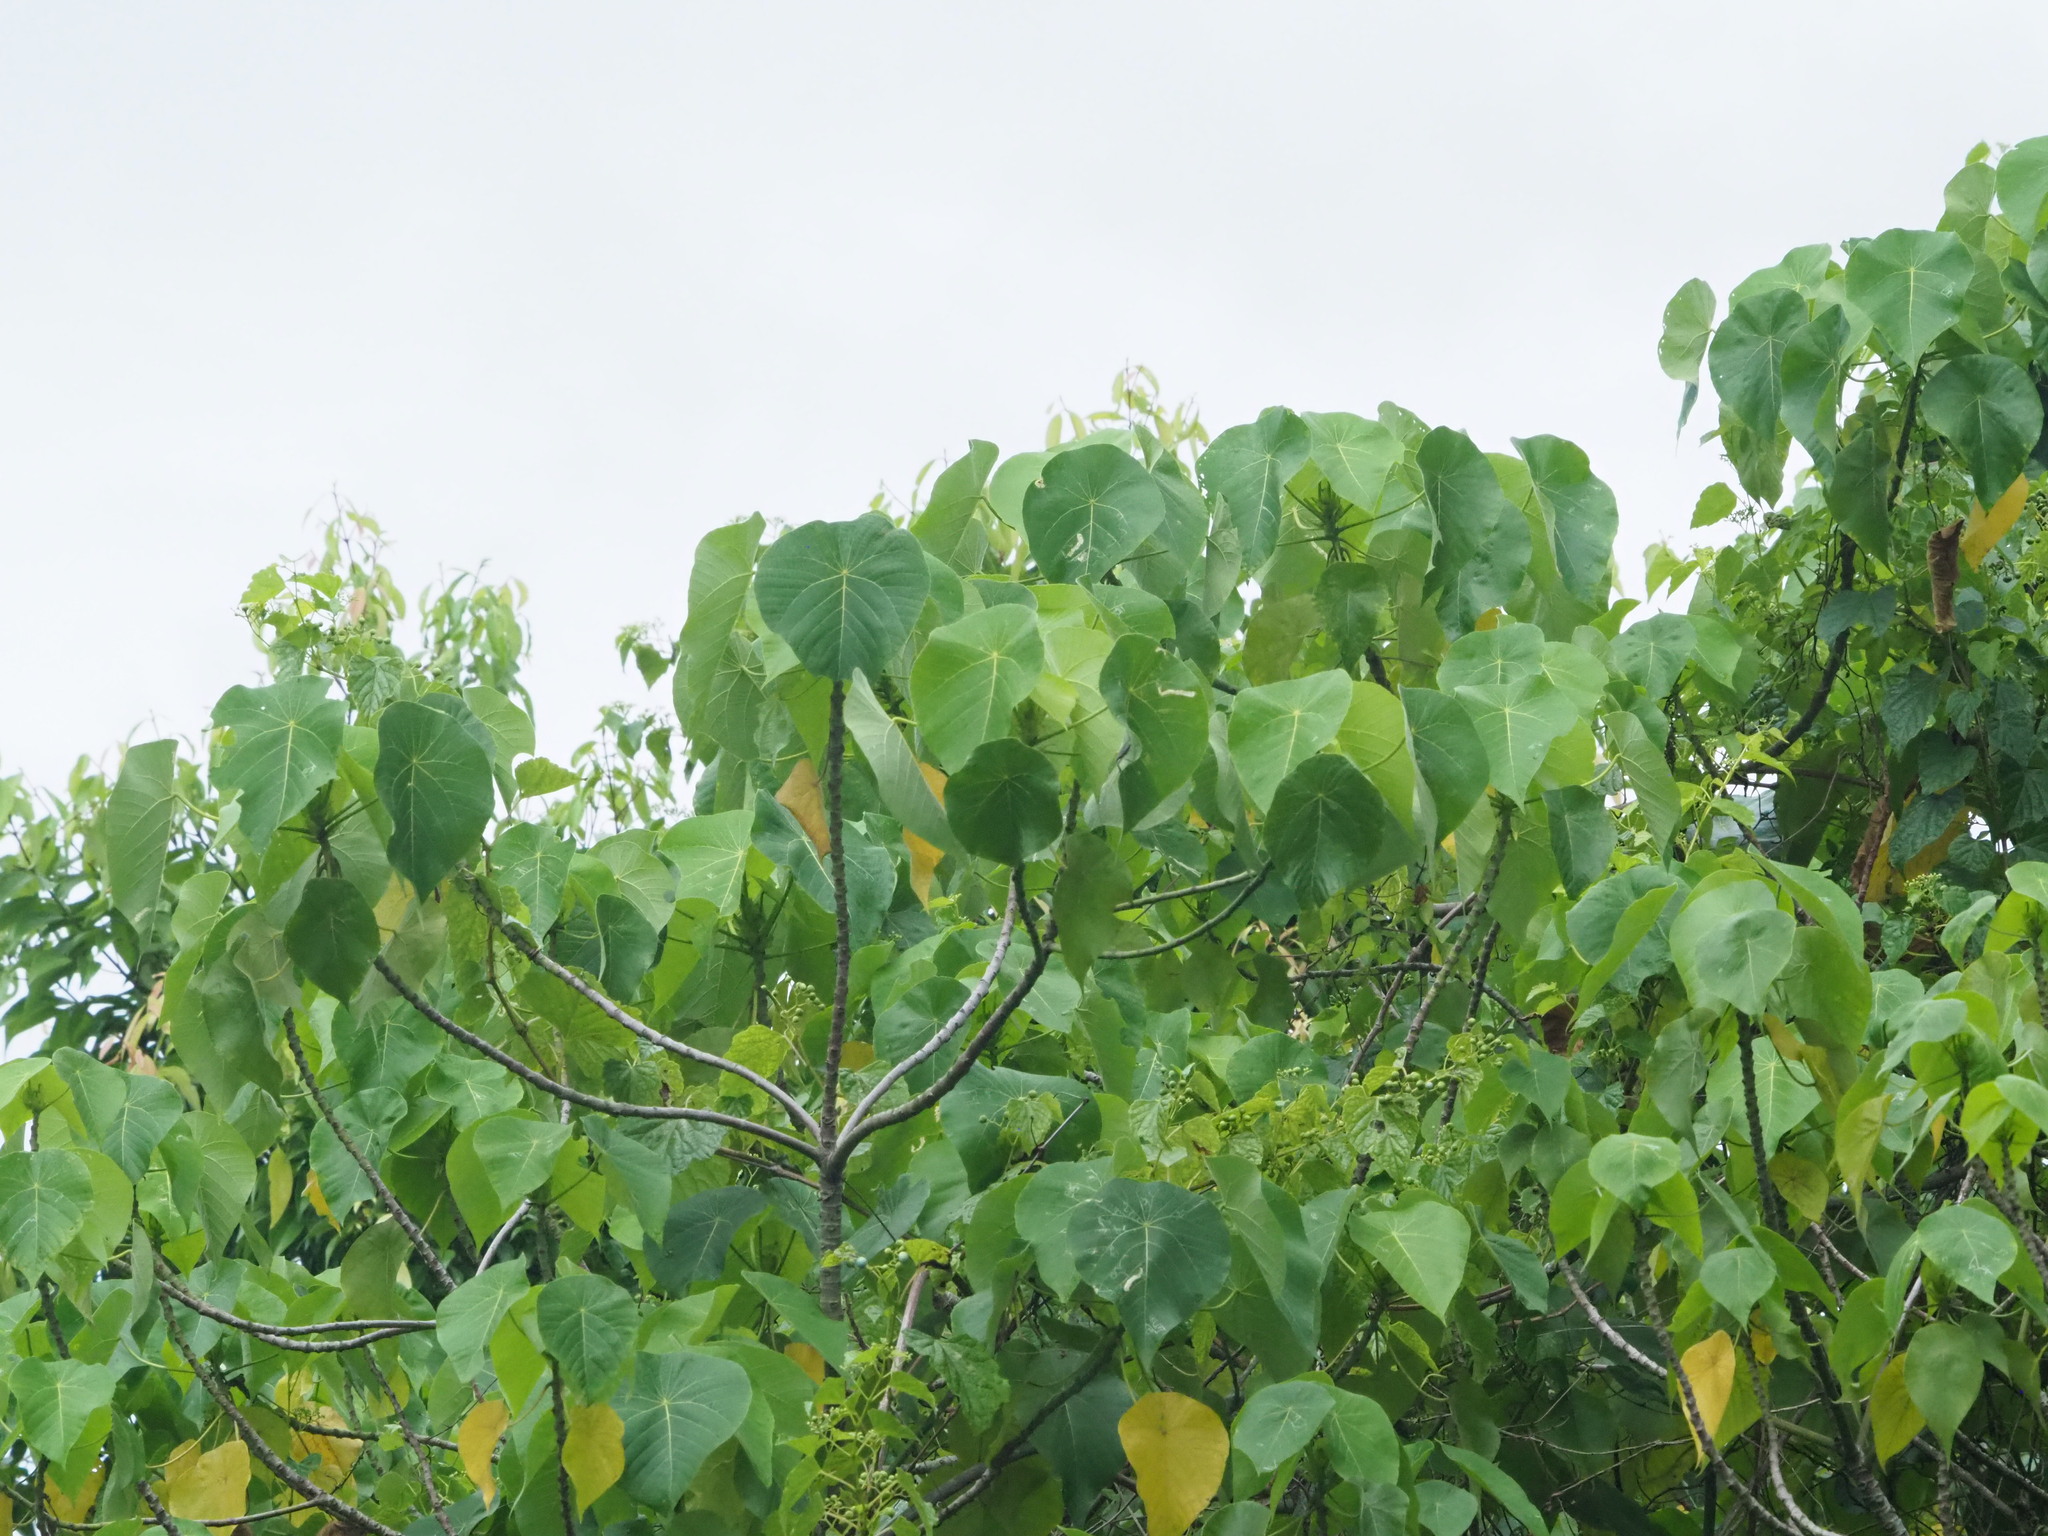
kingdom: Plantae
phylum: Tracheophyta
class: Magnoliopsida
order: Malpighiales
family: Euphorbiaceae
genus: Macaranga
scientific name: Macaranga tanarius
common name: Parasol leaf tree
